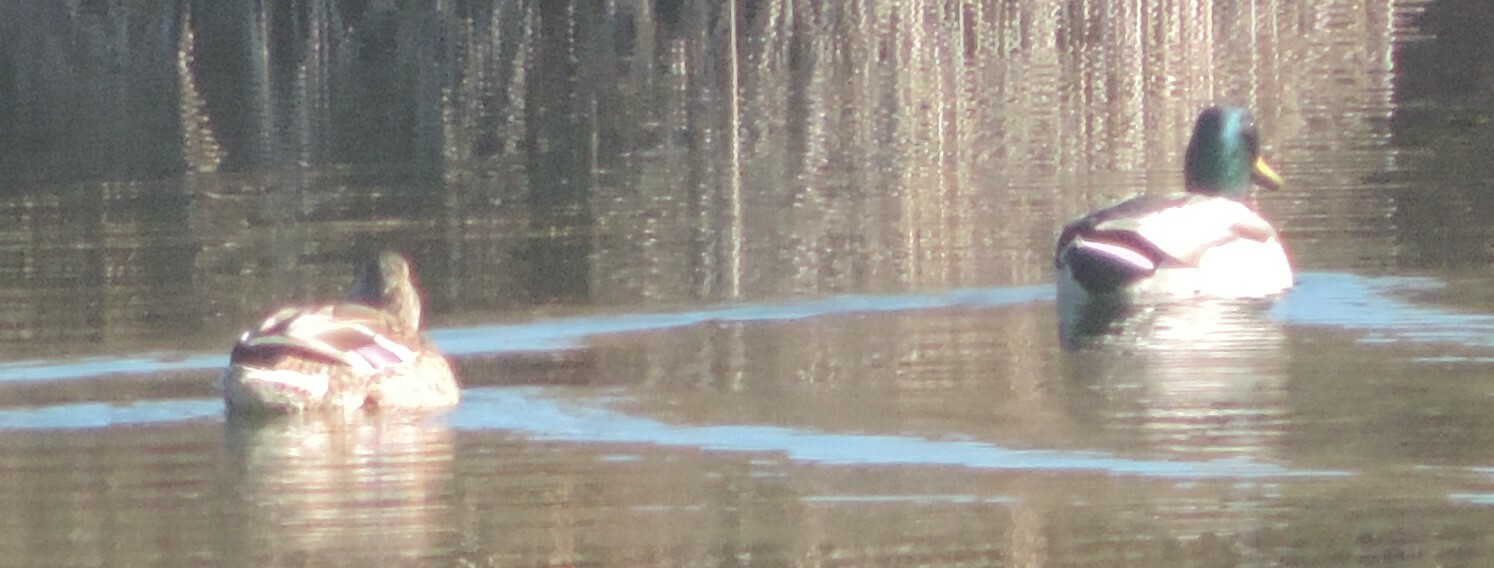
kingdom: Animalia
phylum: Chordata
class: Aves
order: Anseriformes
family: Anatidae
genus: Anas
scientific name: Anas platyrhynchos
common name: Mallard
